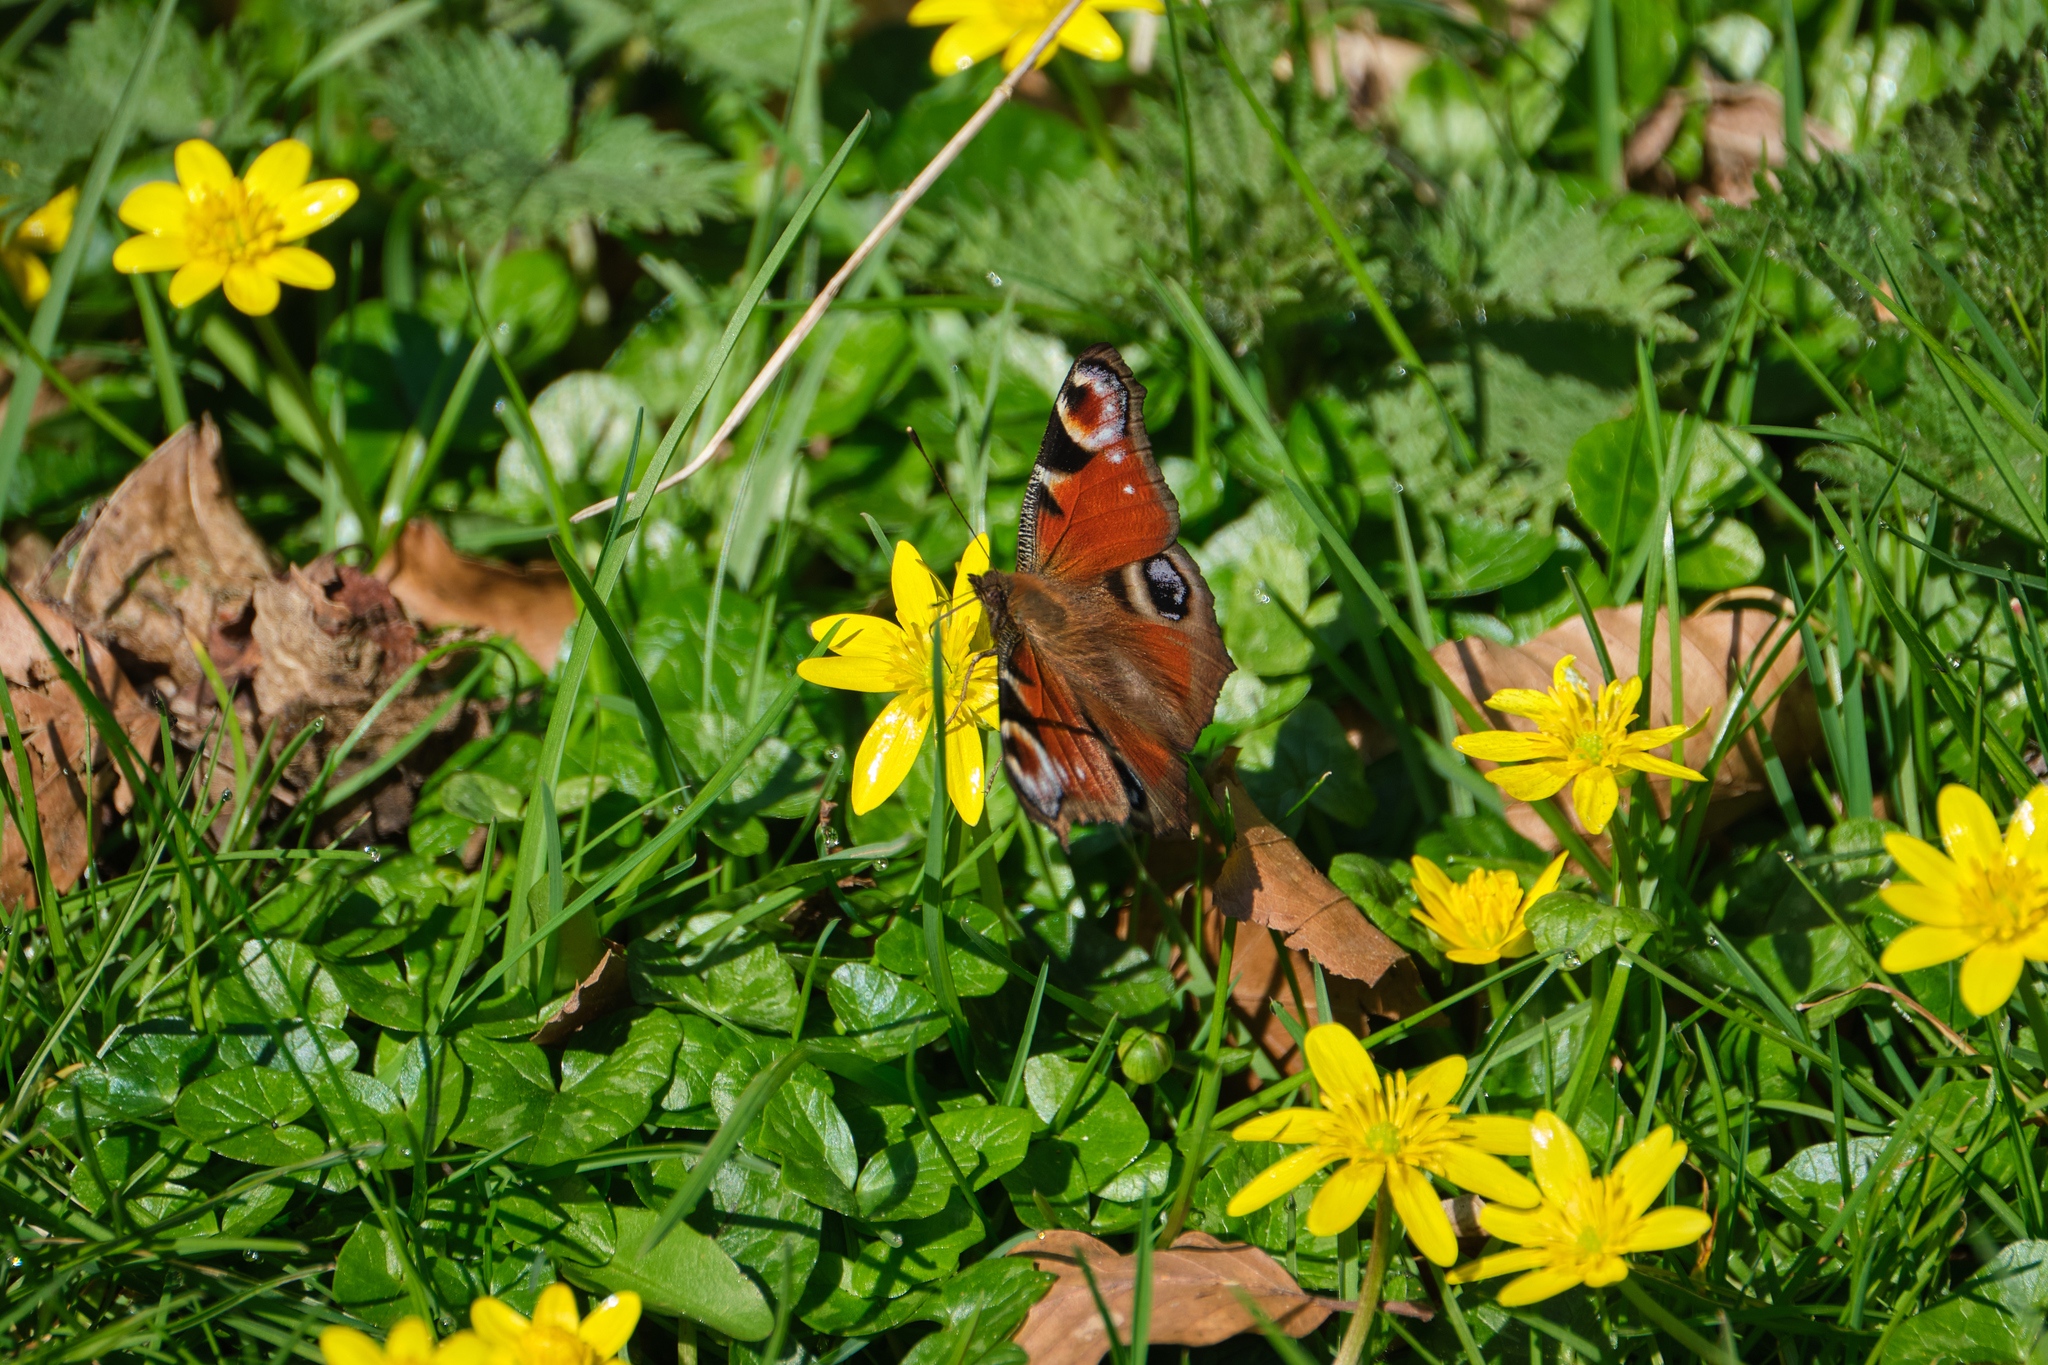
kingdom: Plantae
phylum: Tracheophyta
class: Magnoliopsida
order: Ranunculales
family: Ranunculaceae
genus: Ficaria
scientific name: Ficaria verna
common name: Lesser celandine
